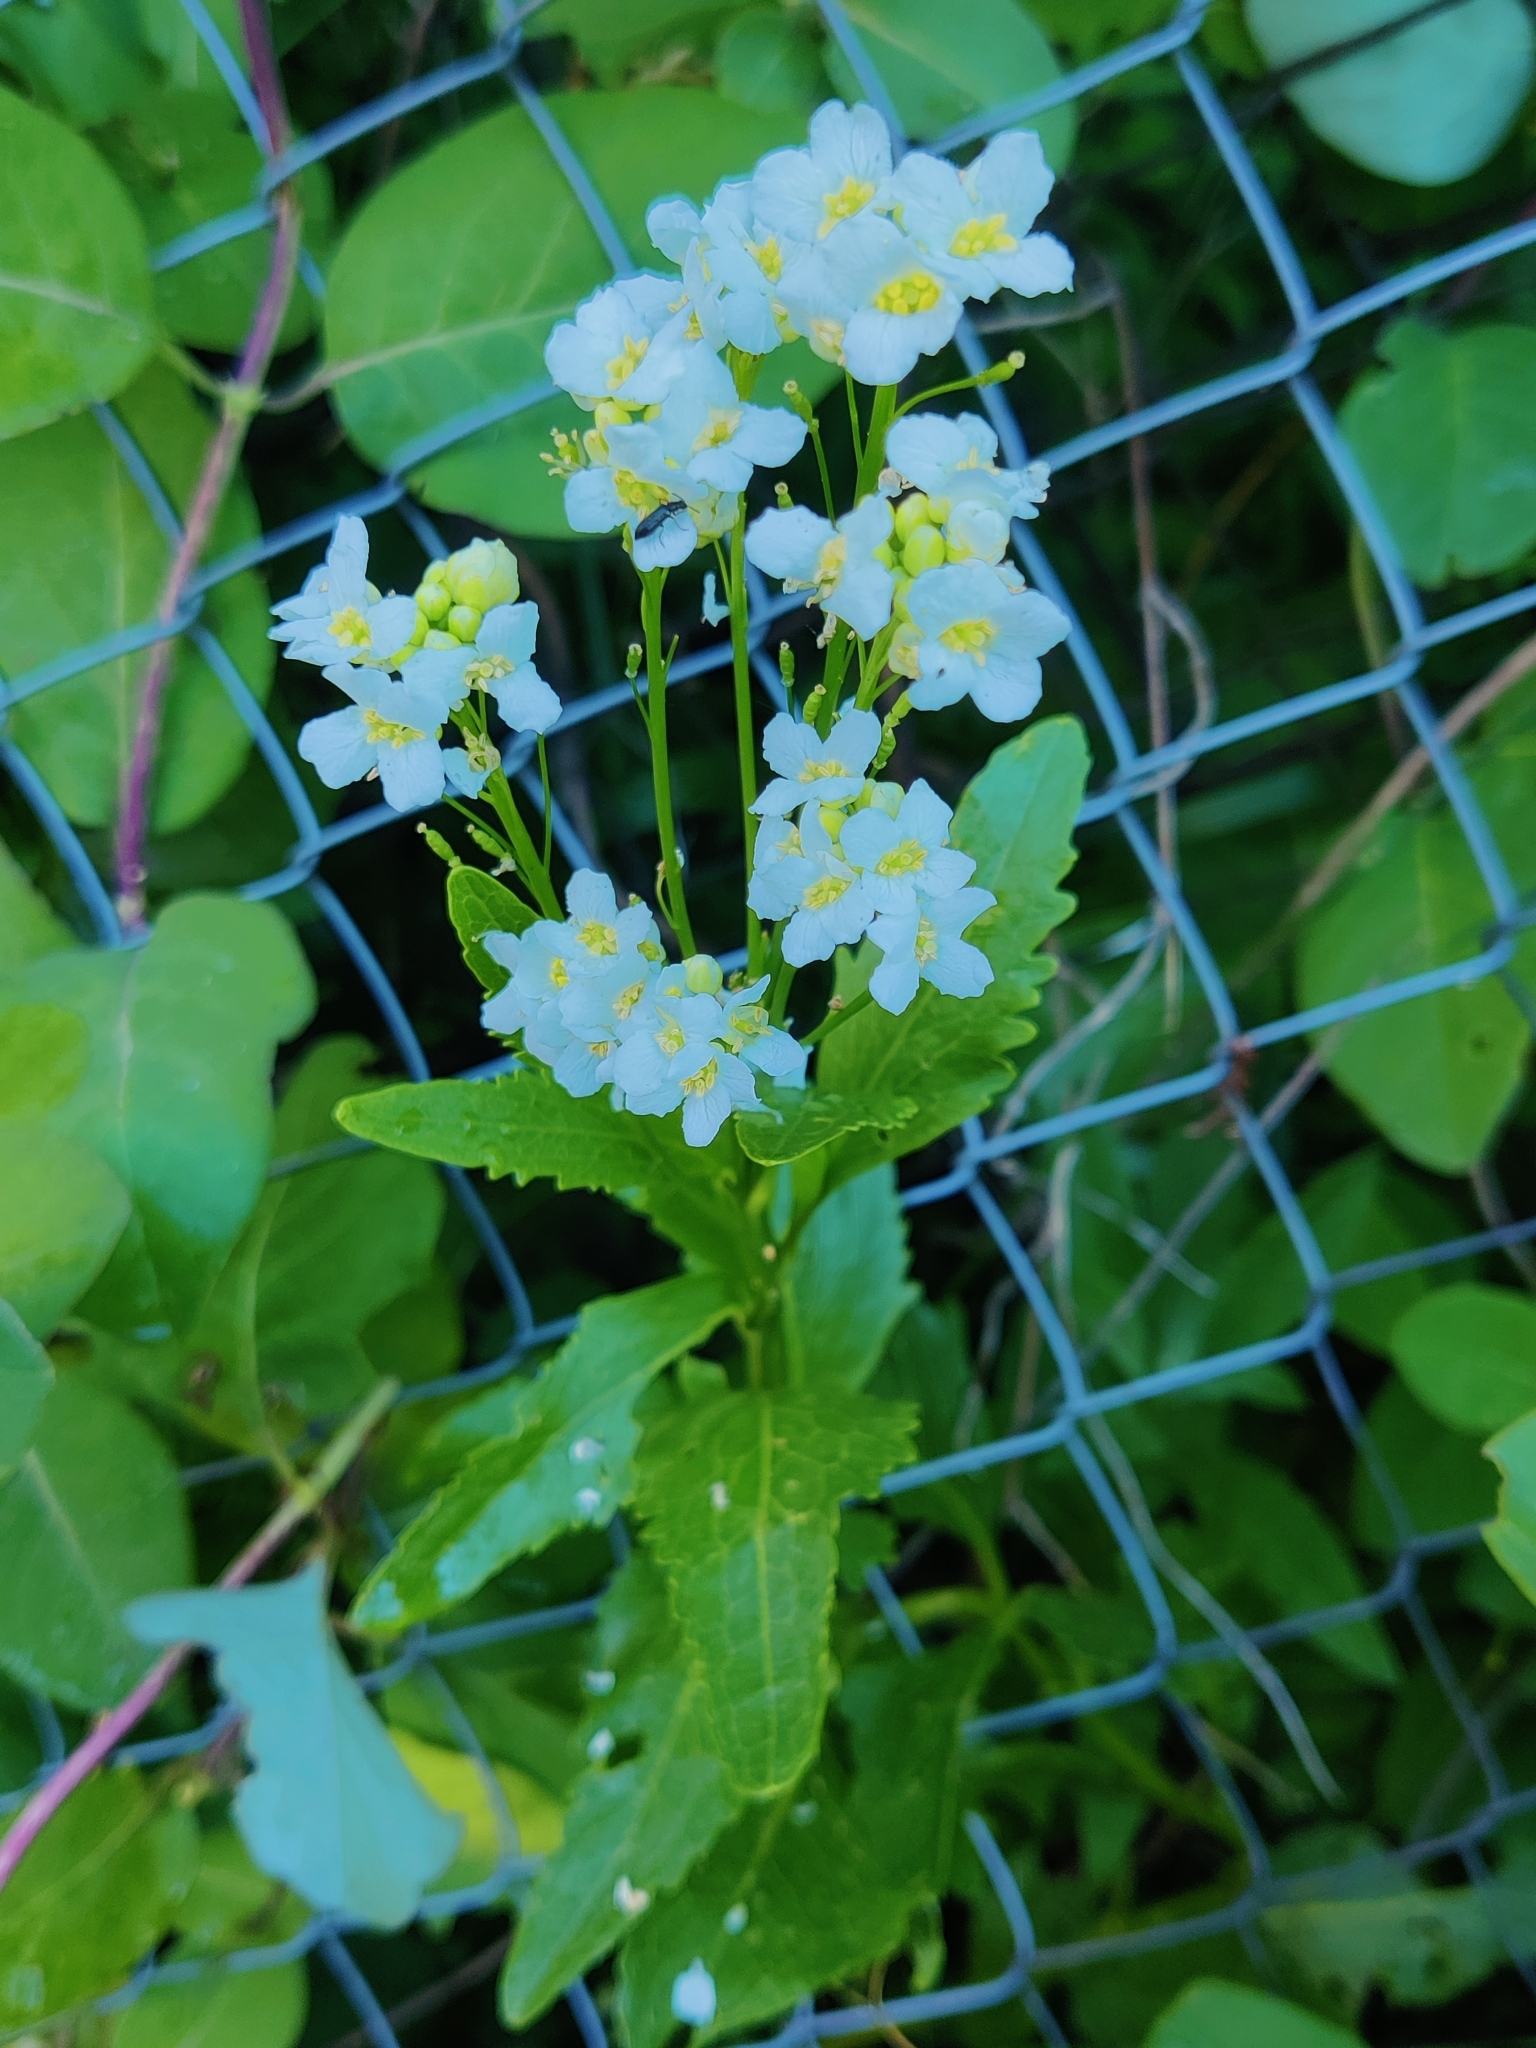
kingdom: Plantae
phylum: Tracheophyta
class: Magnoliopsida
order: Brassicales
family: Brassicaceae
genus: Armoracia
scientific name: Armoracia rusticana
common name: Horseradish
